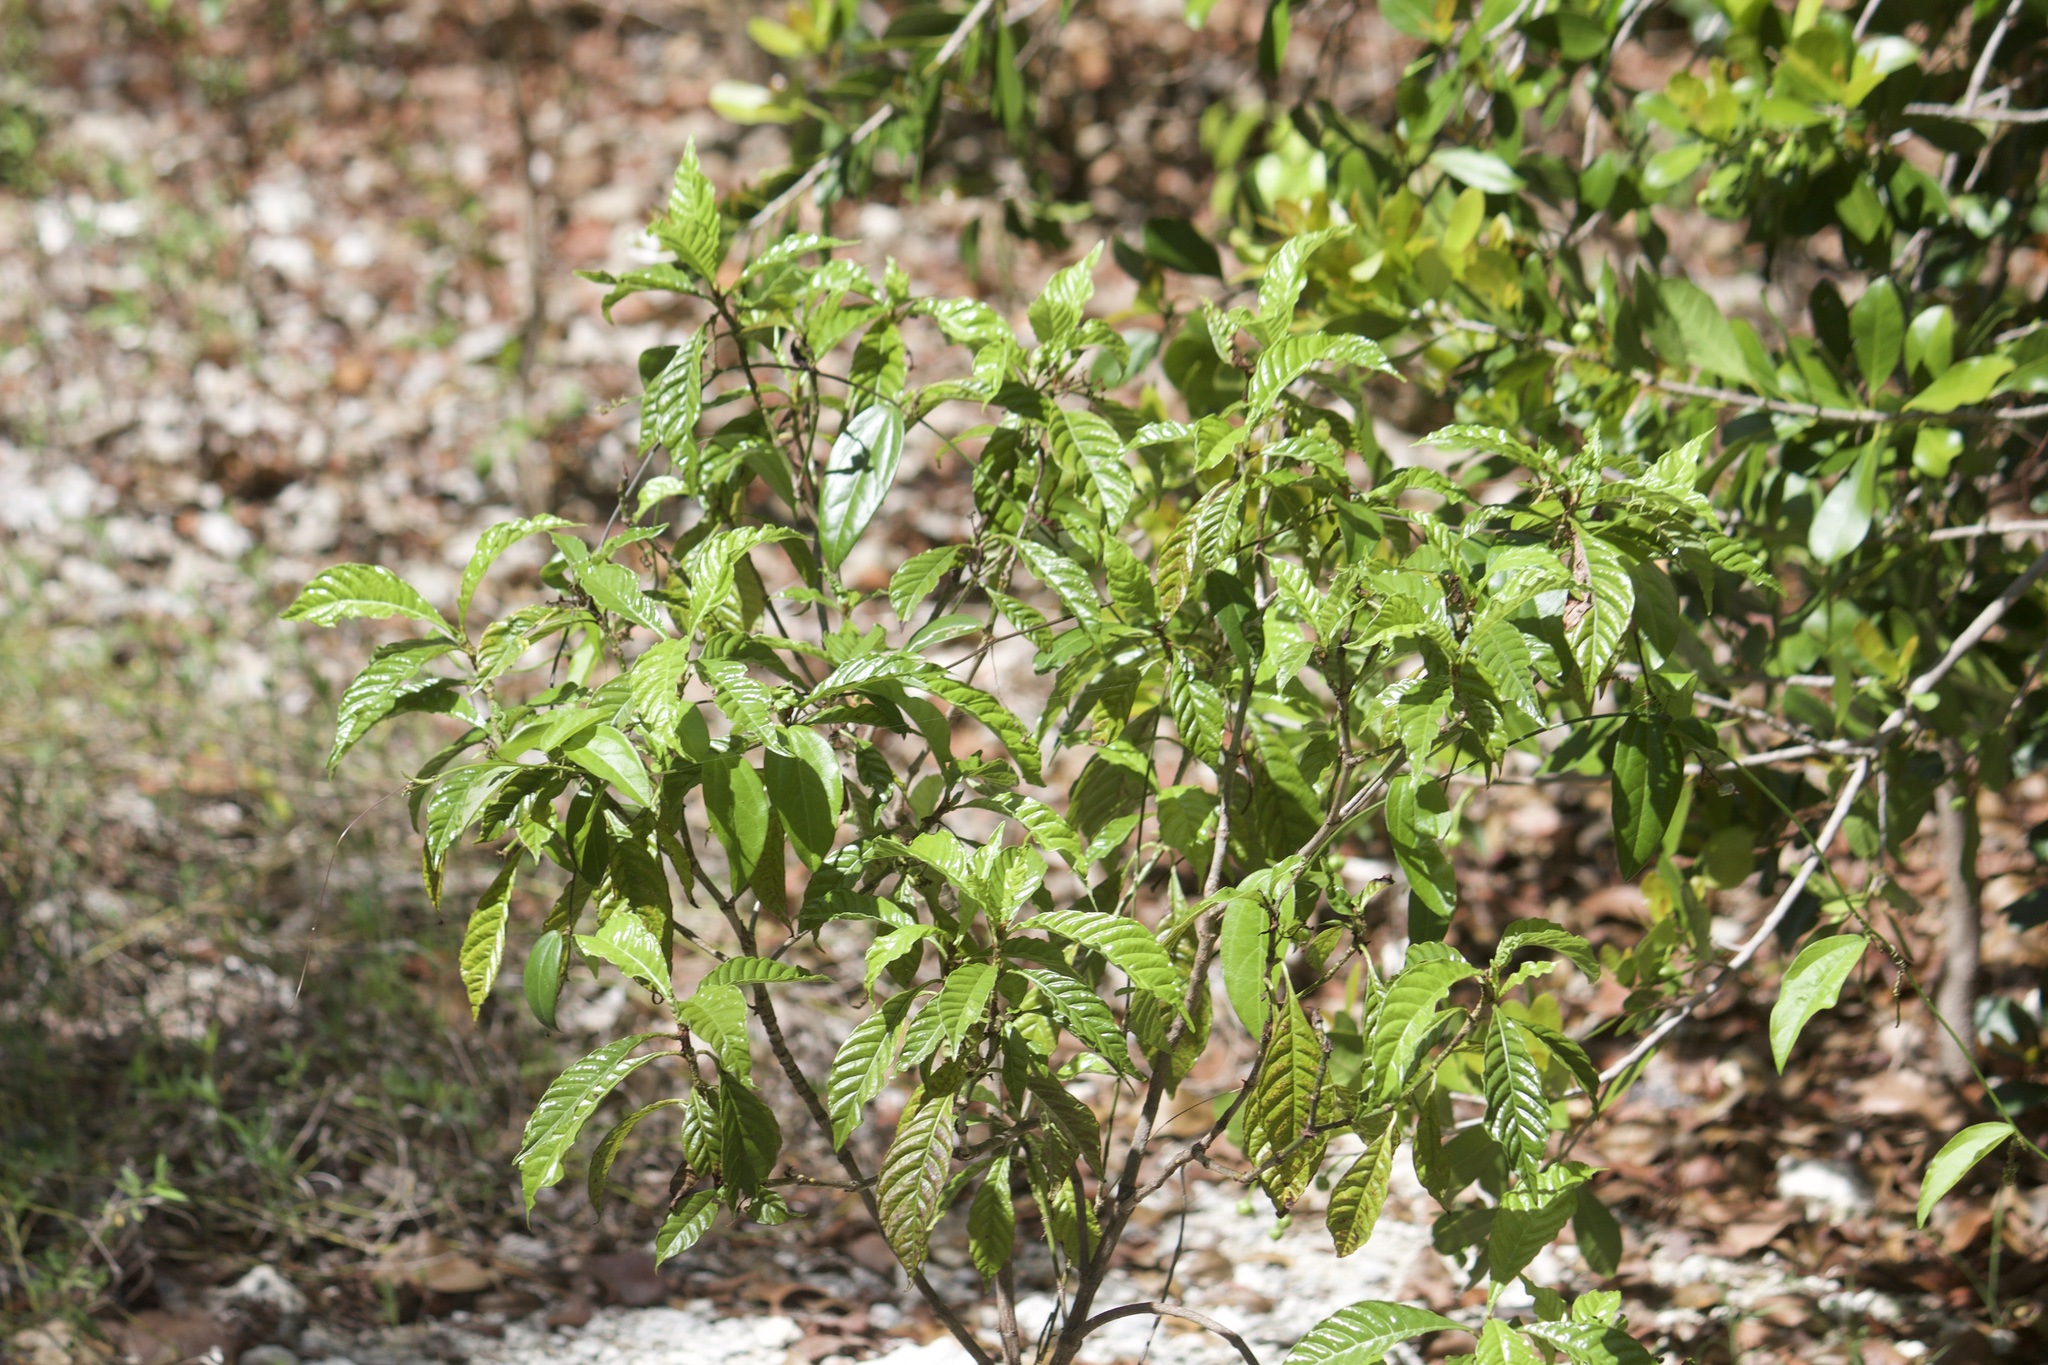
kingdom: Plantae
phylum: Tracheophyta
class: Magnoliopsida
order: Gentianales
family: Rubiaceae
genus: Psychotria
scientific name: Psychotria nervosa
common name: Bastard cankerberry
